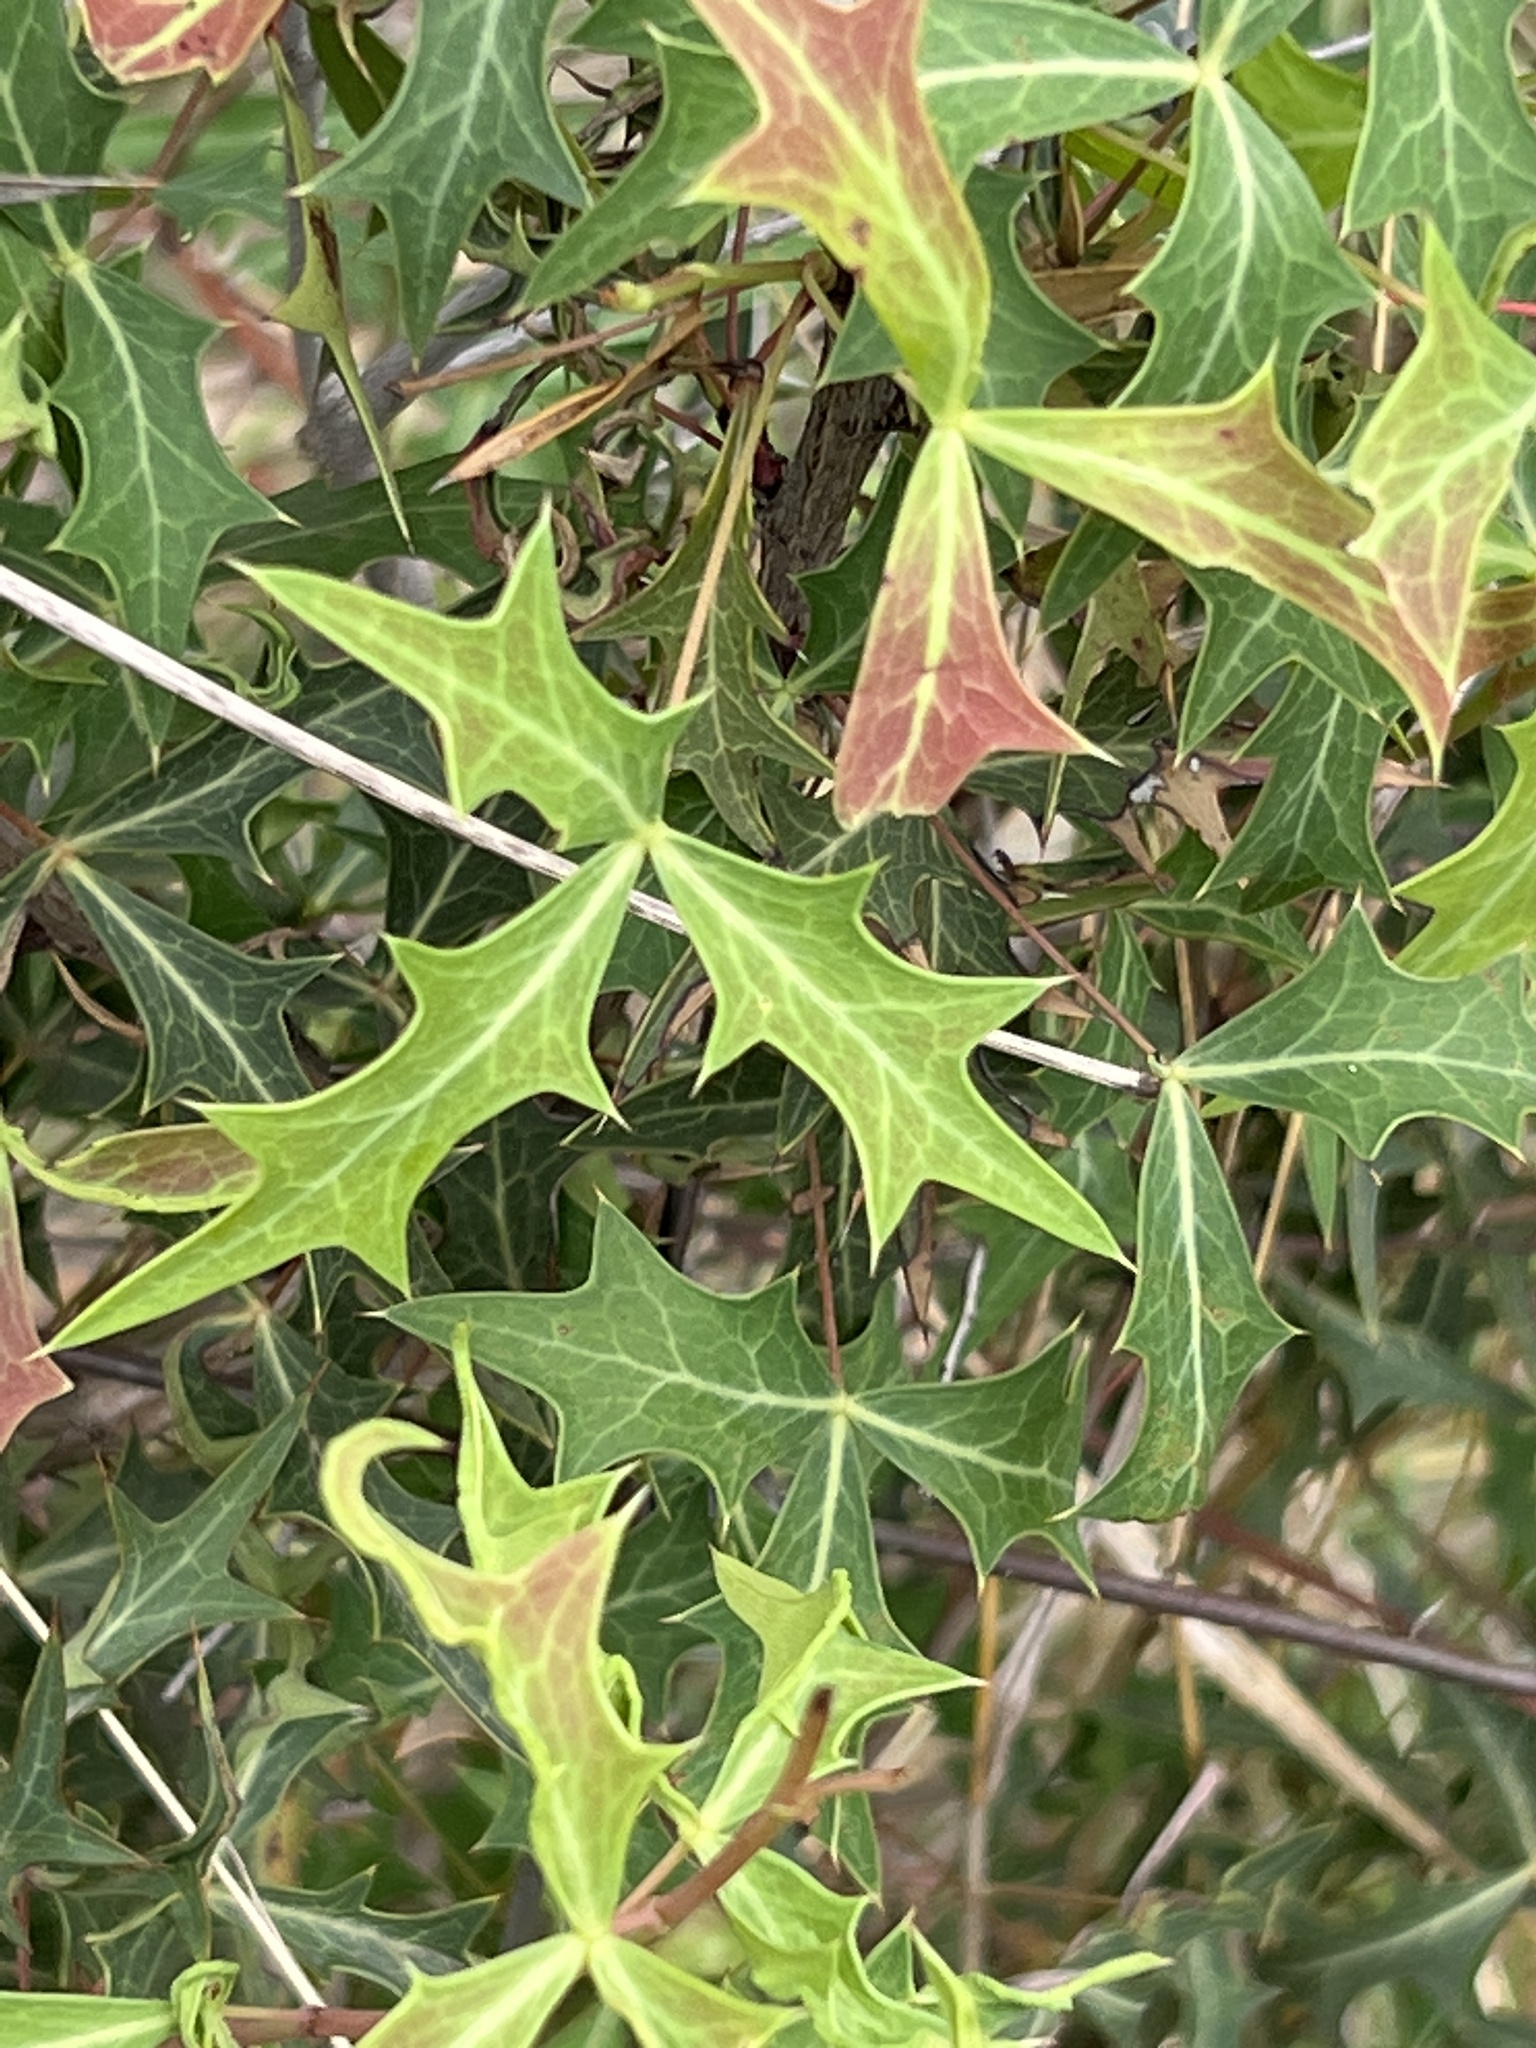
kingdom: Plantae
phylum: Tracheophyta
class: Magnoliopsida
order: Ranunculales
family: Berberidaceae
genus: Alloberberis
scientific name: Alloberberis trifoliolata
